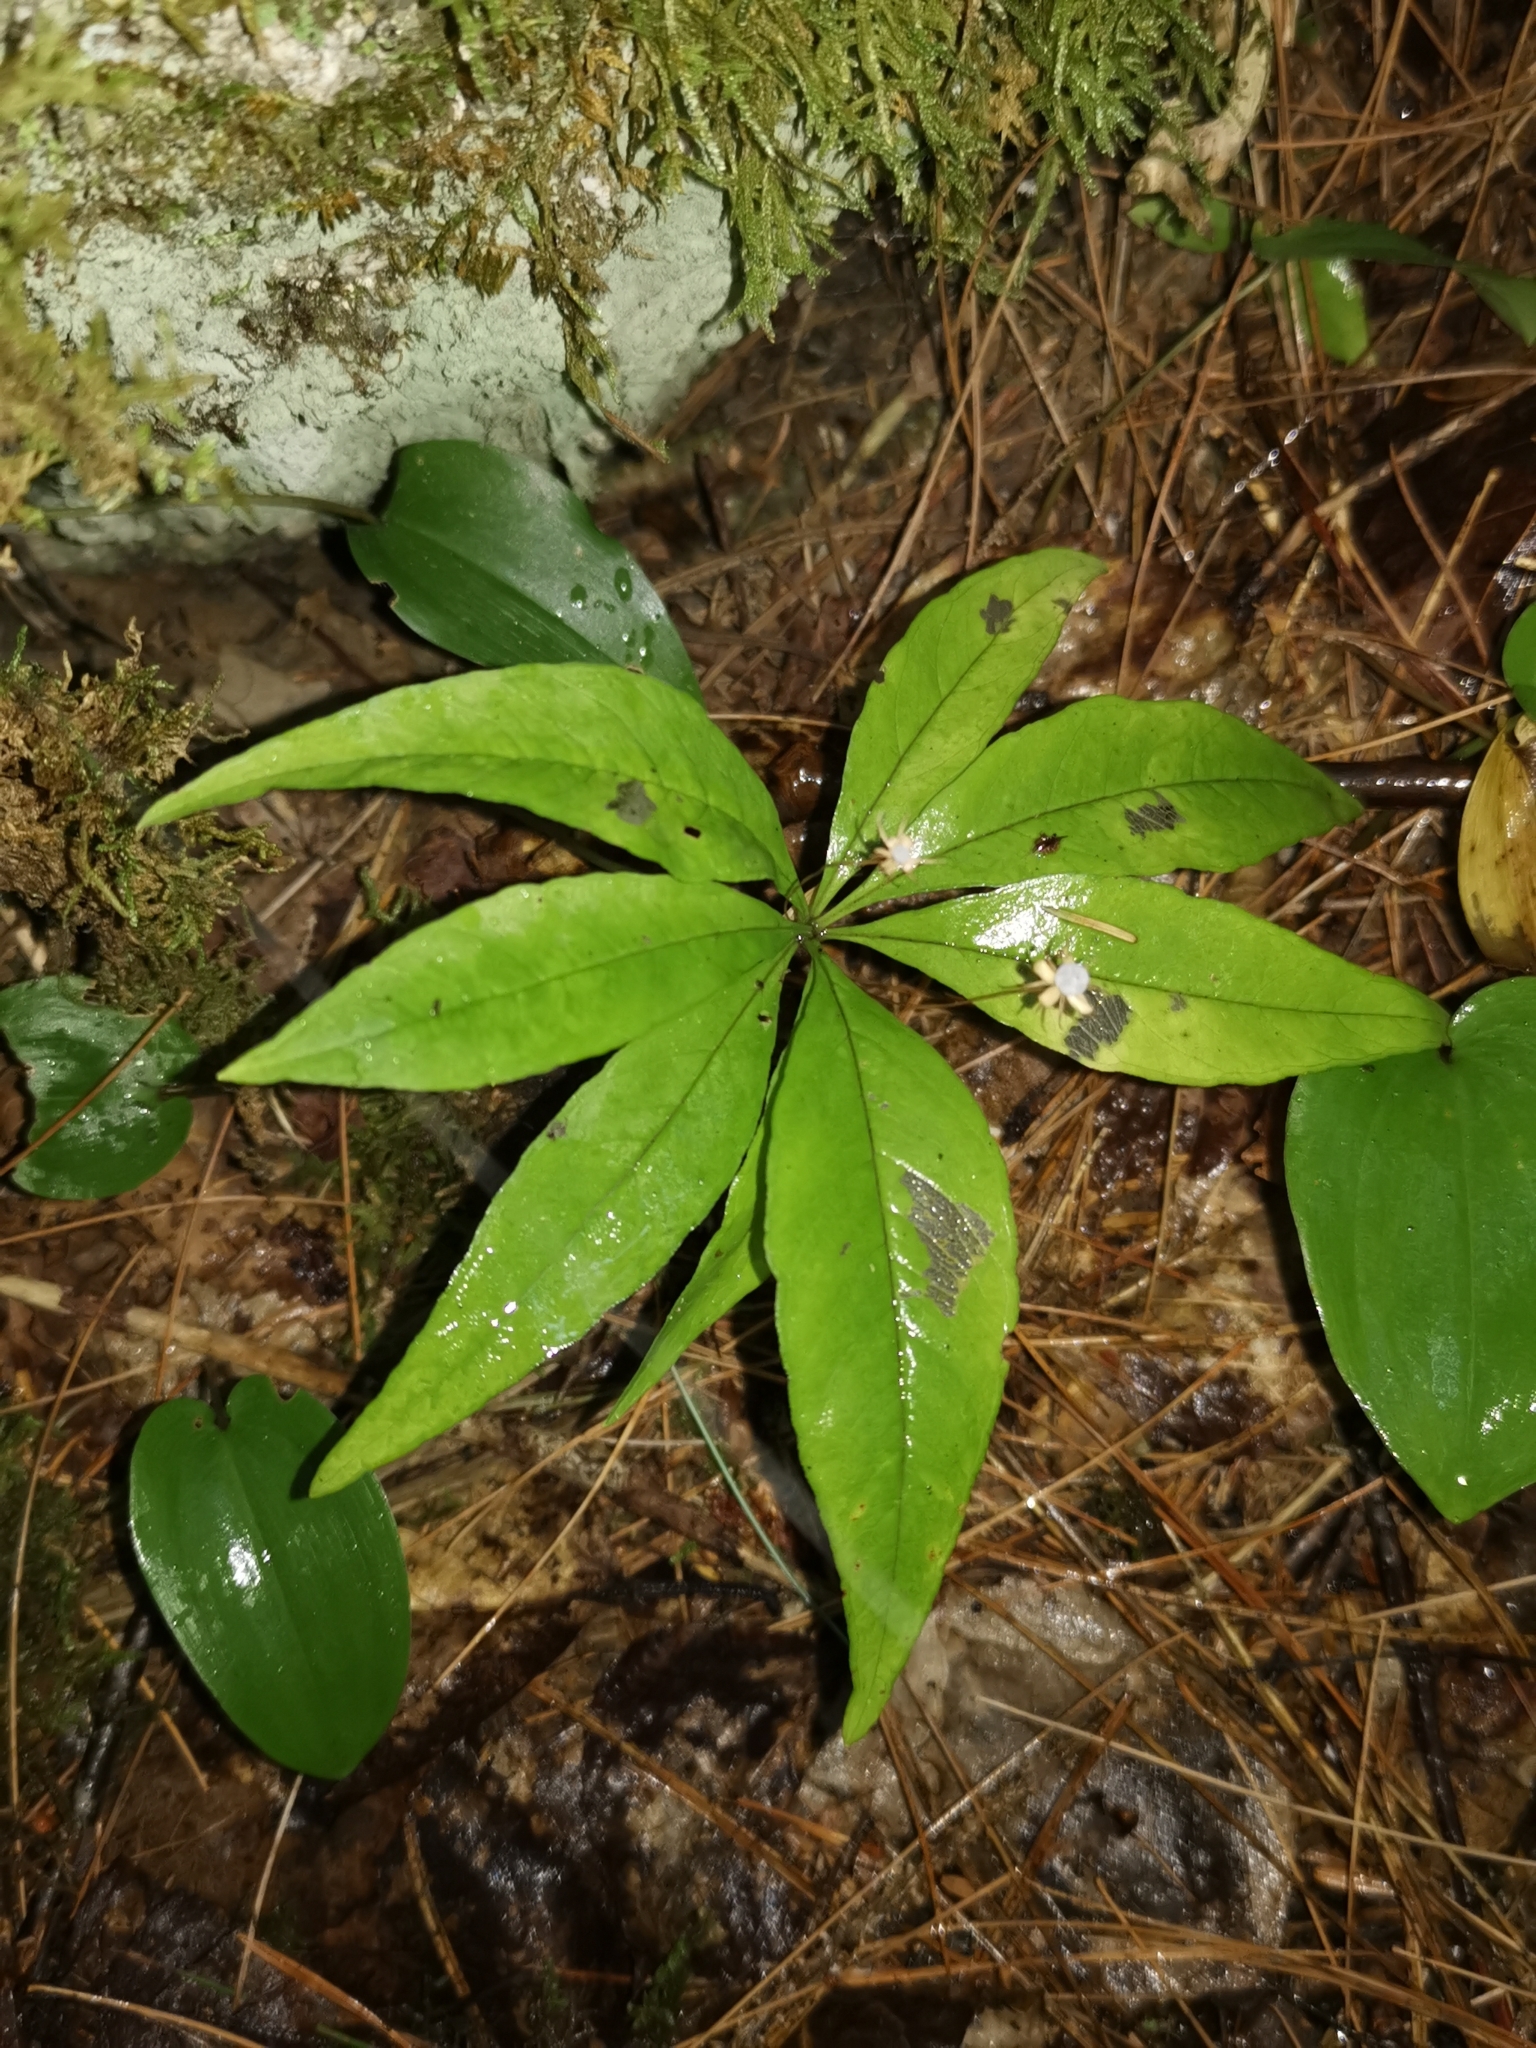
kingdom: Plantae
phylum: Tracheophyta
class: Magnoliopsida
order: Ericales
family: Primulaceae
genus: Lysimachia
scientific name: Lysimachia borealis
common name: American starflower
